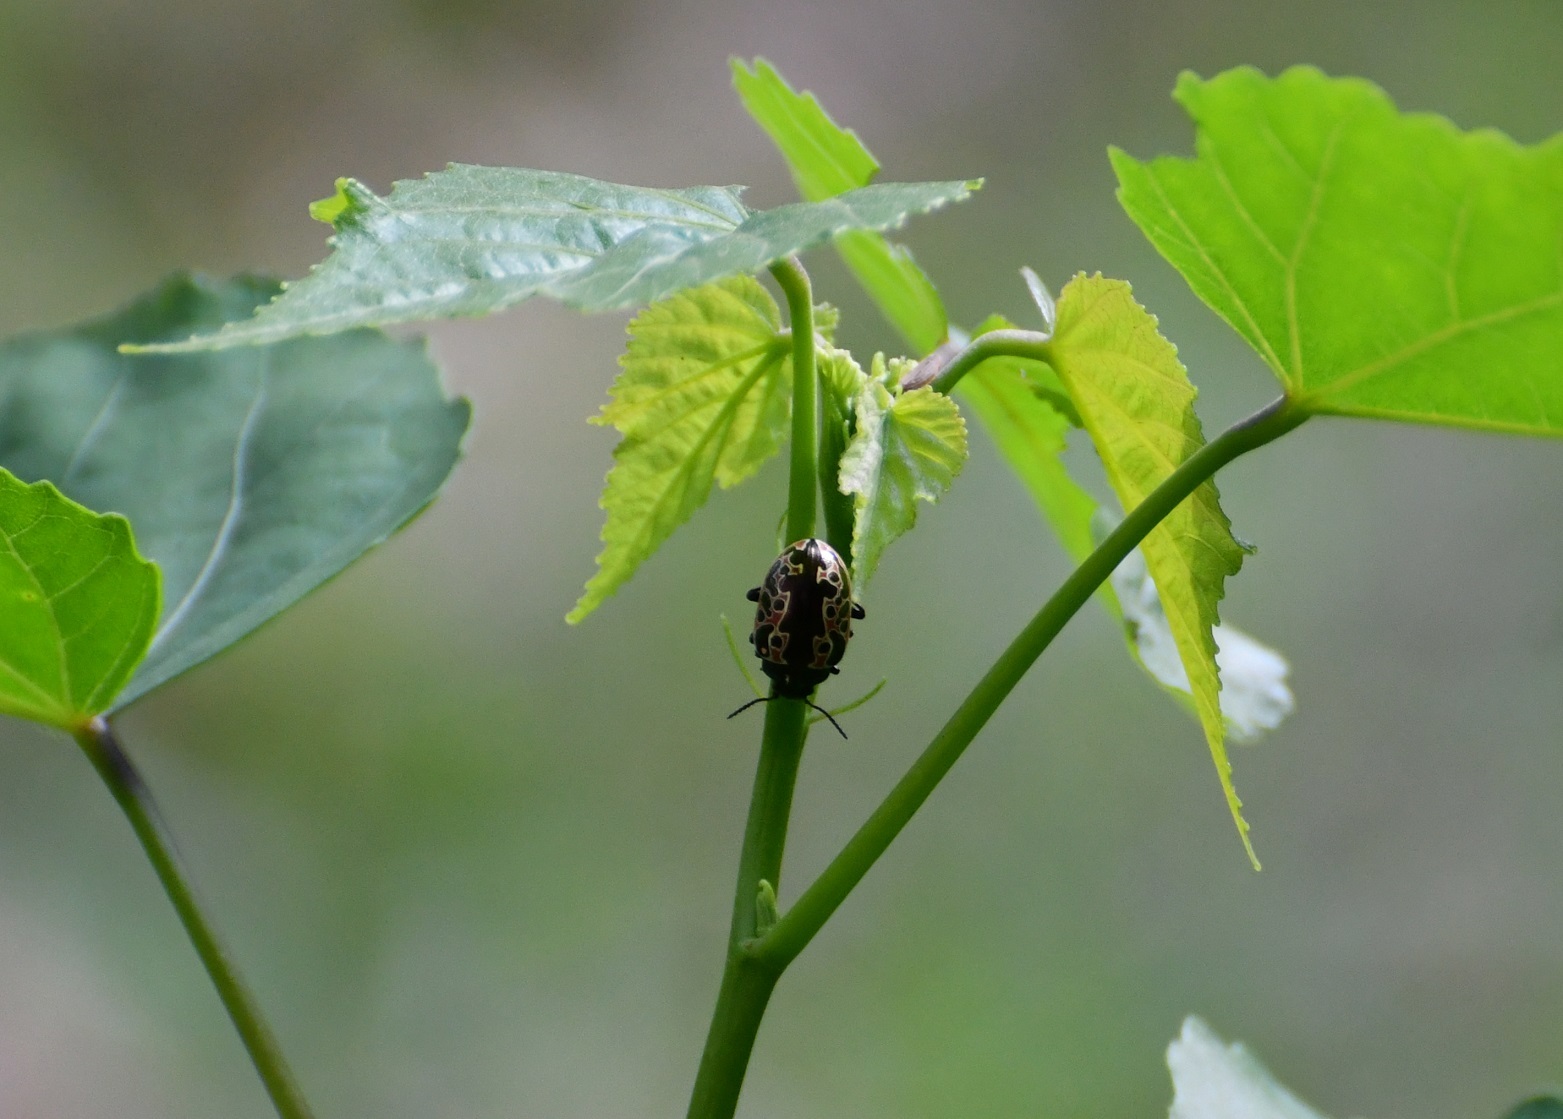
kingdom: Animalia
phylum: Arthropoda
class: Insecta
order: Coleoptera
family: Chrysomelidae
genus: Calligrapha
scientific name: Calligrapha diversa
